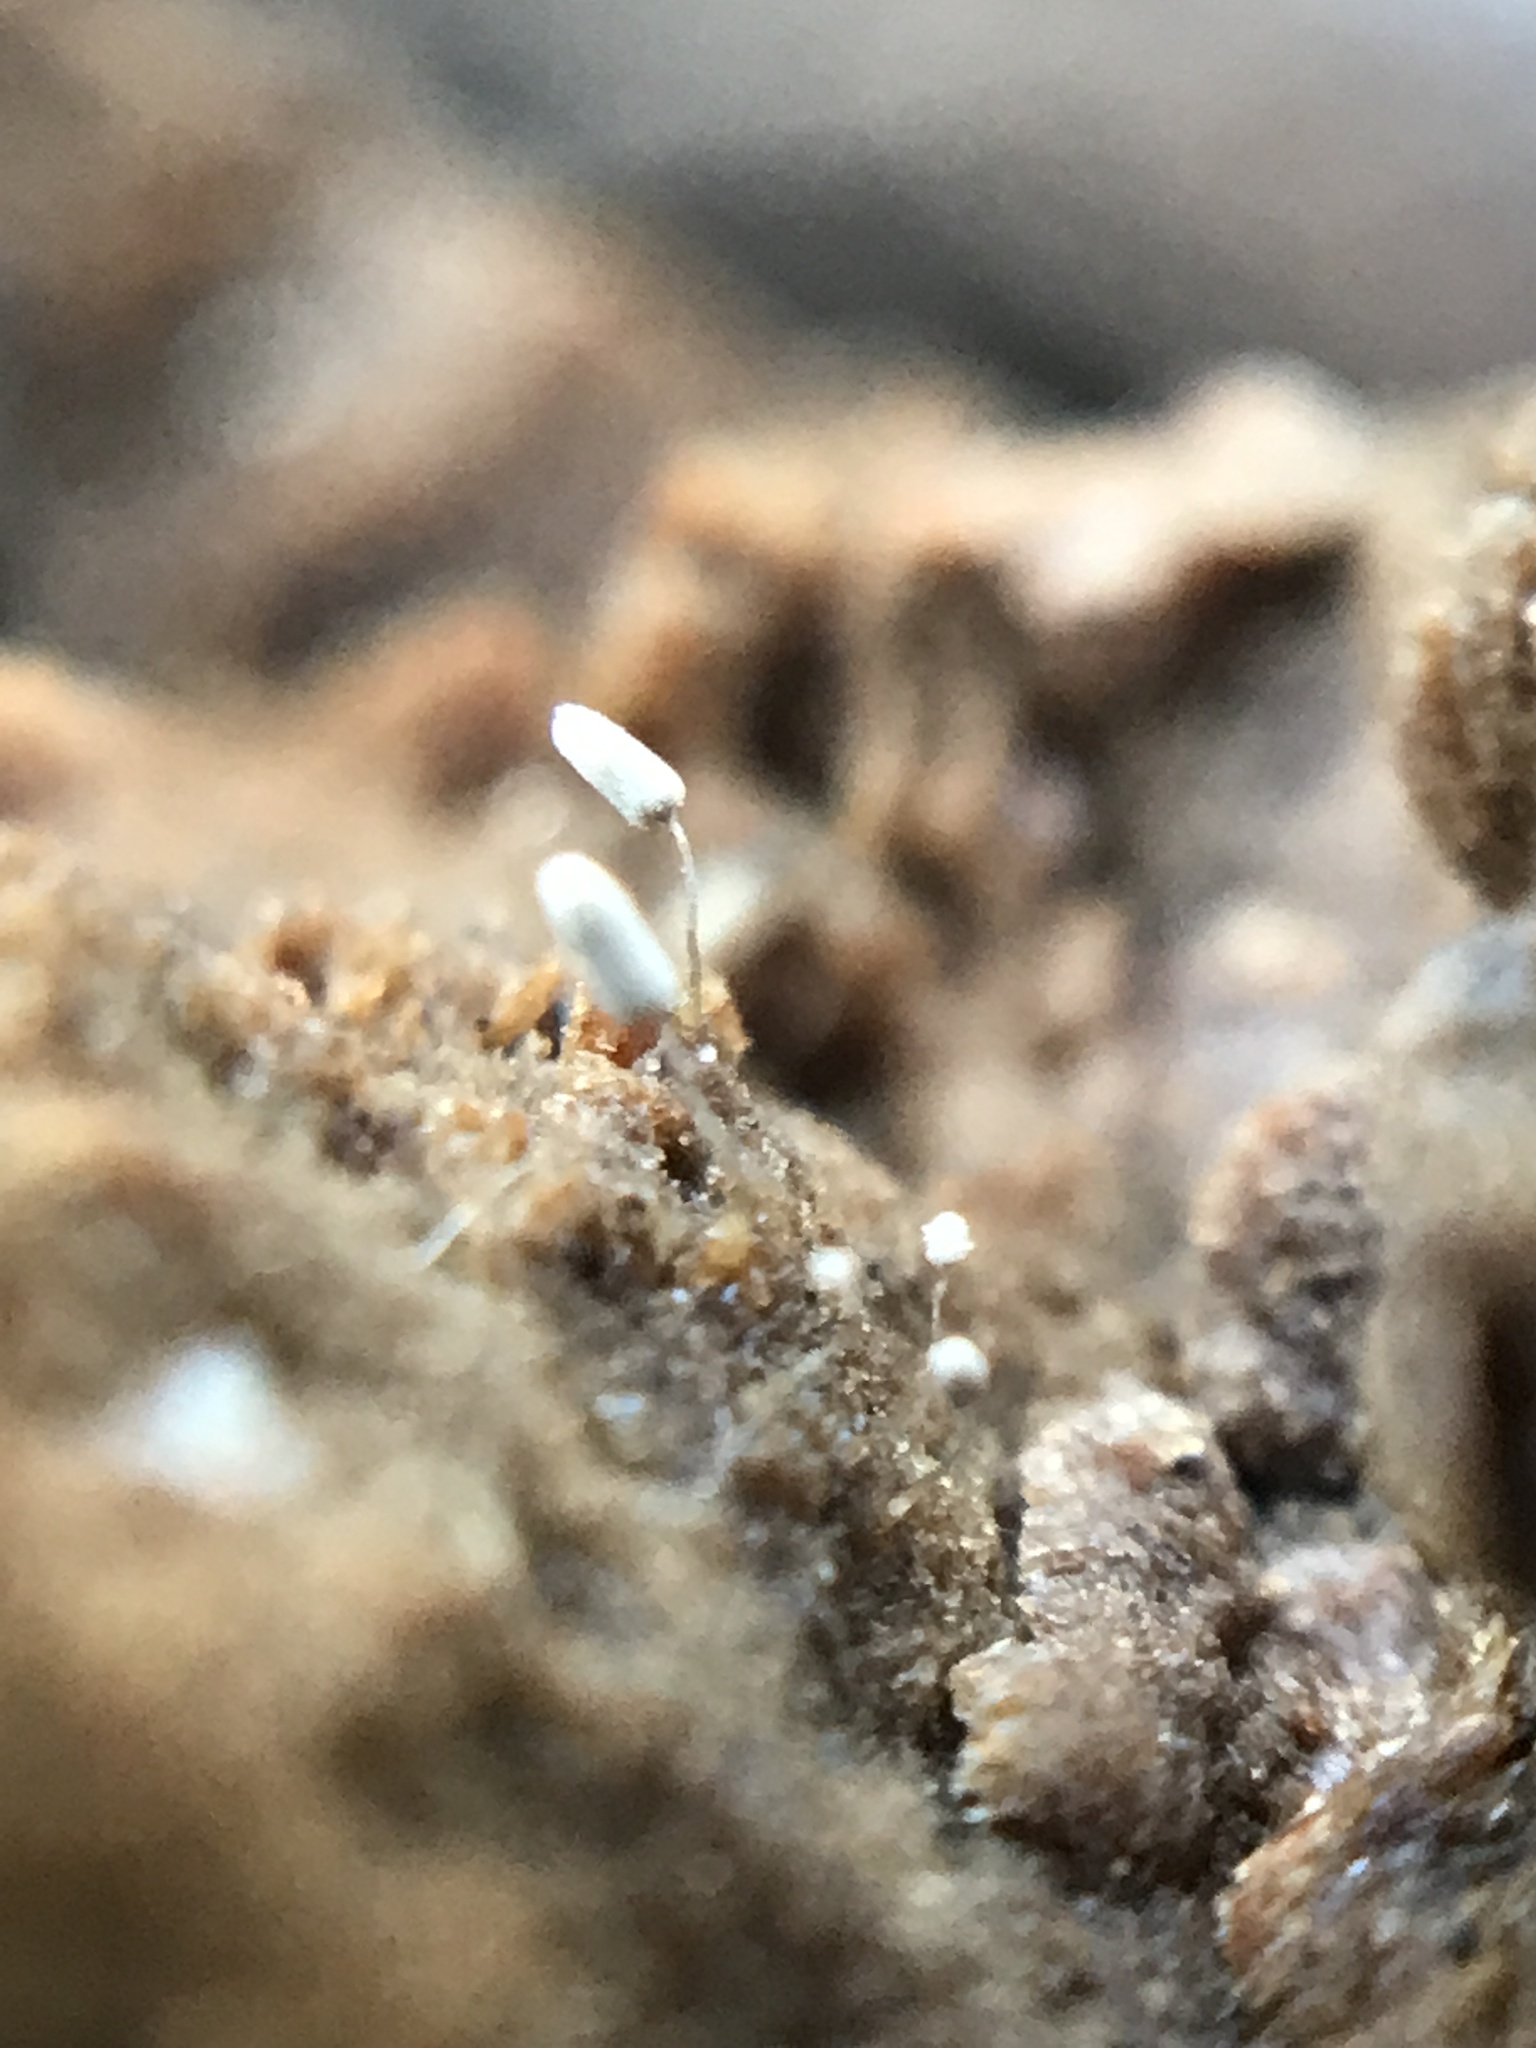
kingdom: Protozoa
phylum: Mycetozoa
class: Myxomycetes
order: Trichiales
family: Arcyriaceae
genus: Arcyria
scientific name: Arcyria cinerea
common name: White carnival candy slime mold
